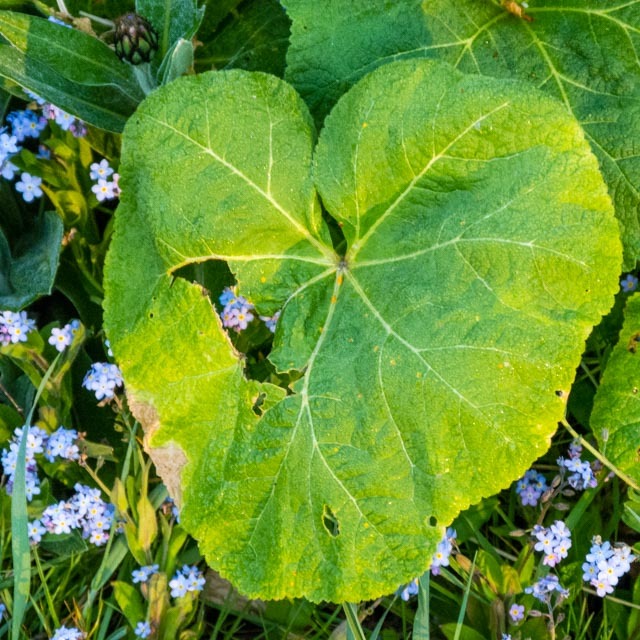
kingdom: Plantae
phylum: Tracheophyta
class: Magnoliopsida
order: Malvales
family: Malvaceae
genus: Alcea
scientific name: Alcea rosea
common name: Hollyhock
